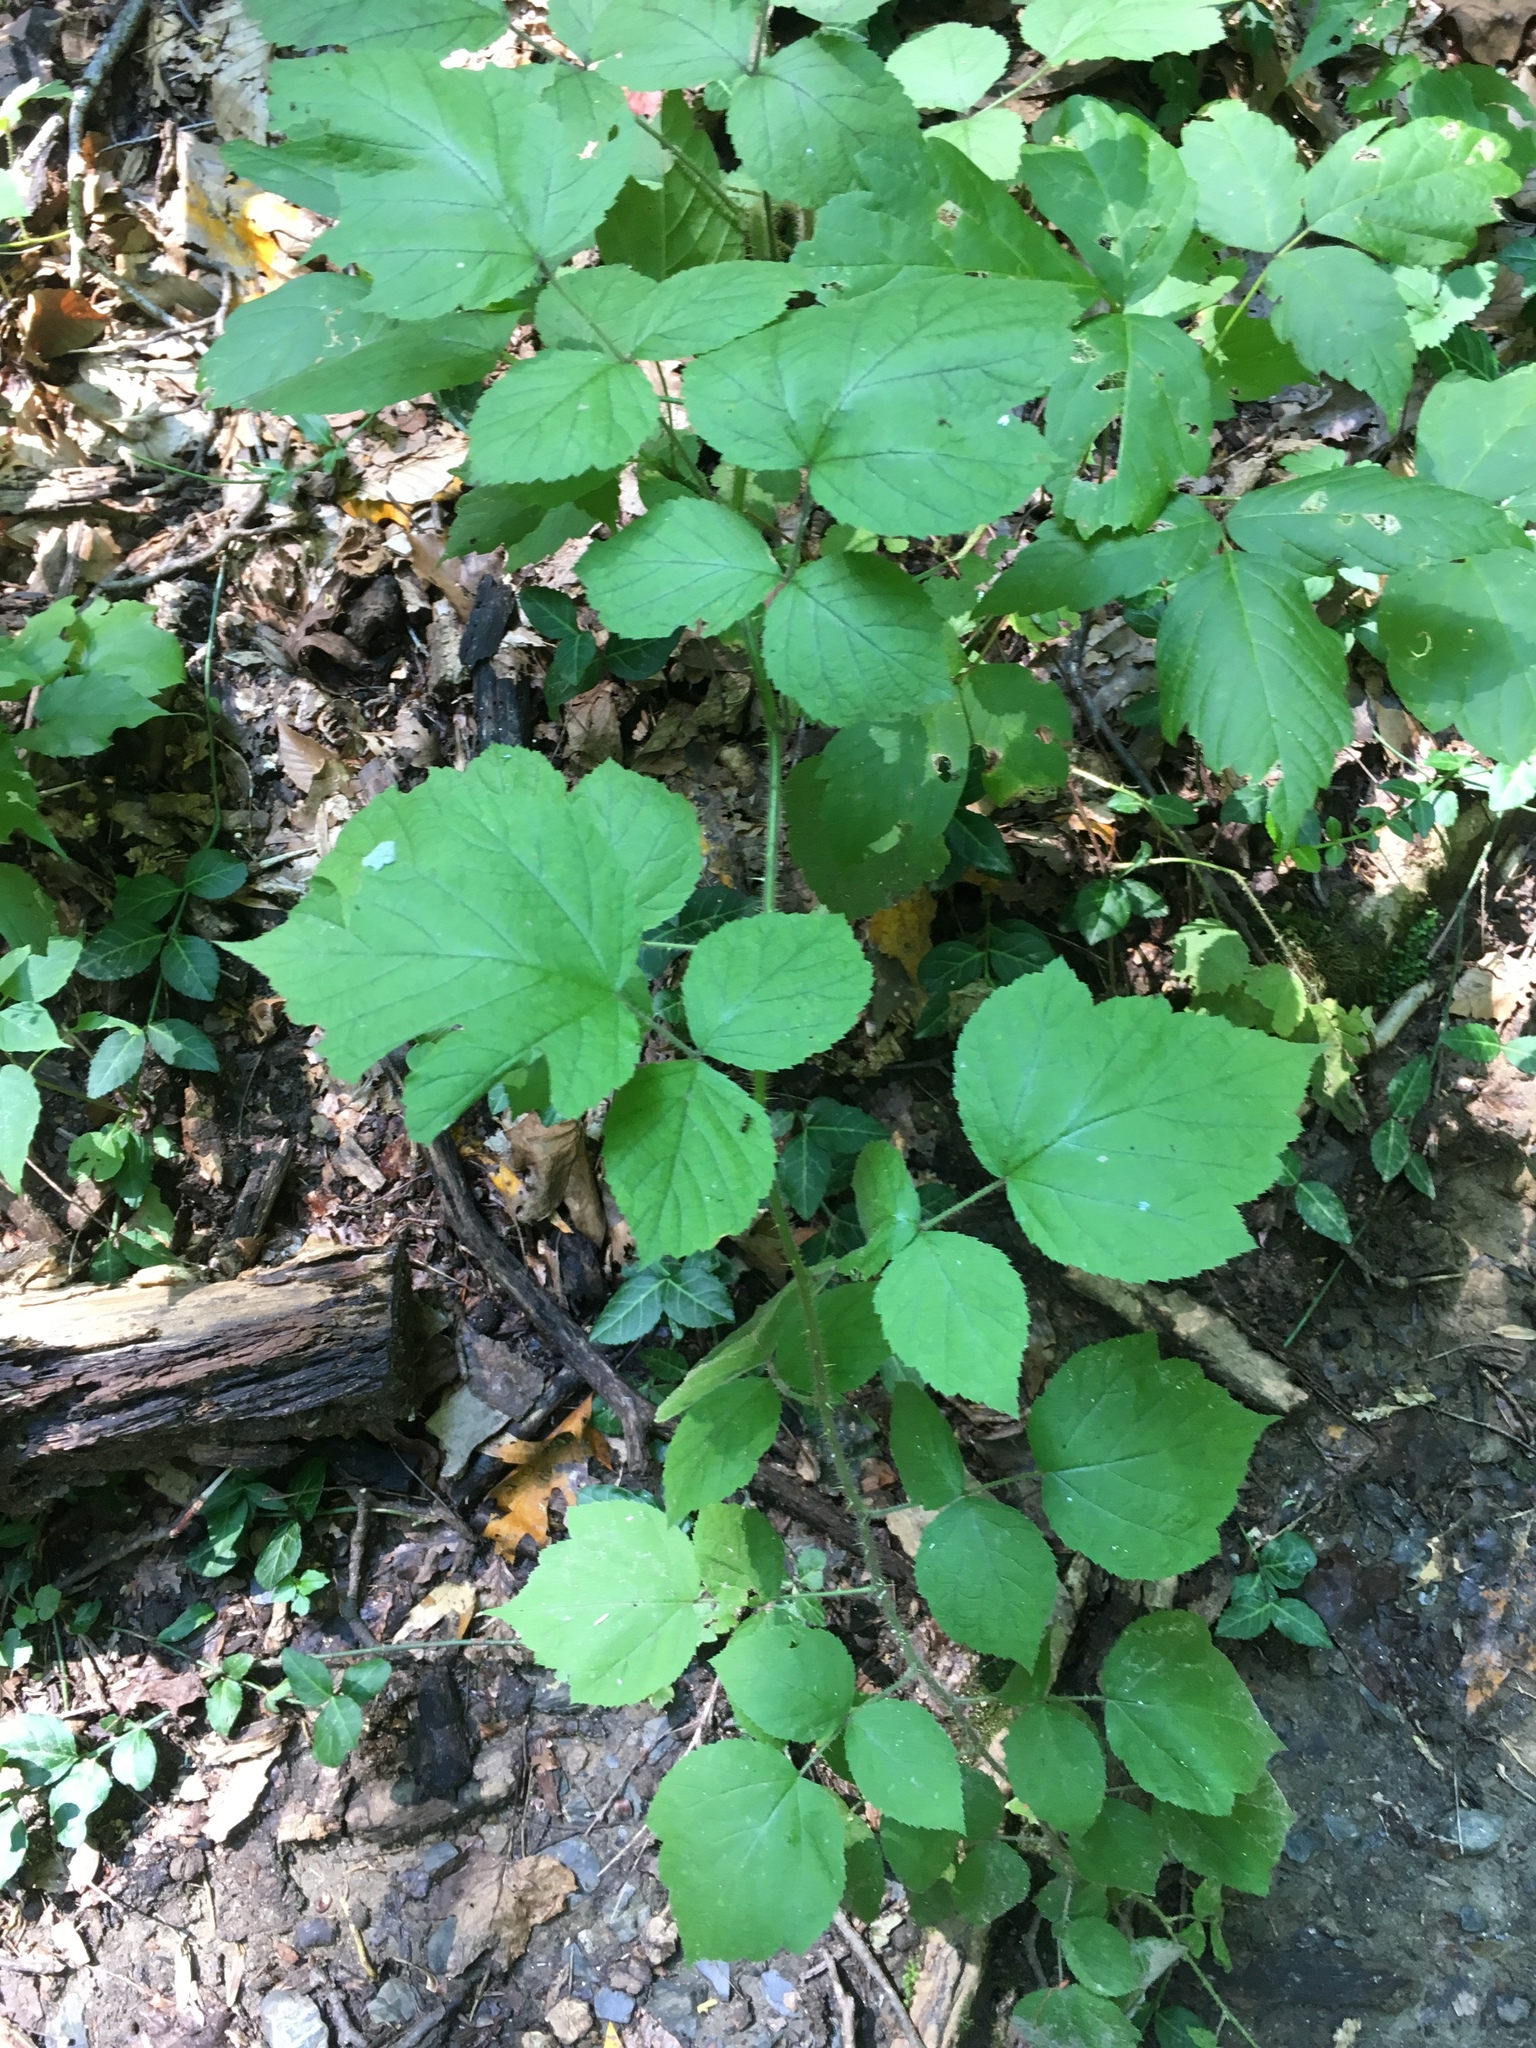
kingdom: Plantae
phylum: Tracheophyta
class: Magnoliopsida
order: Rosales
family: Rosaceae
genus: Rubus
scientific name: Rubus phoenicolasius
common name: Japanese wineberry
